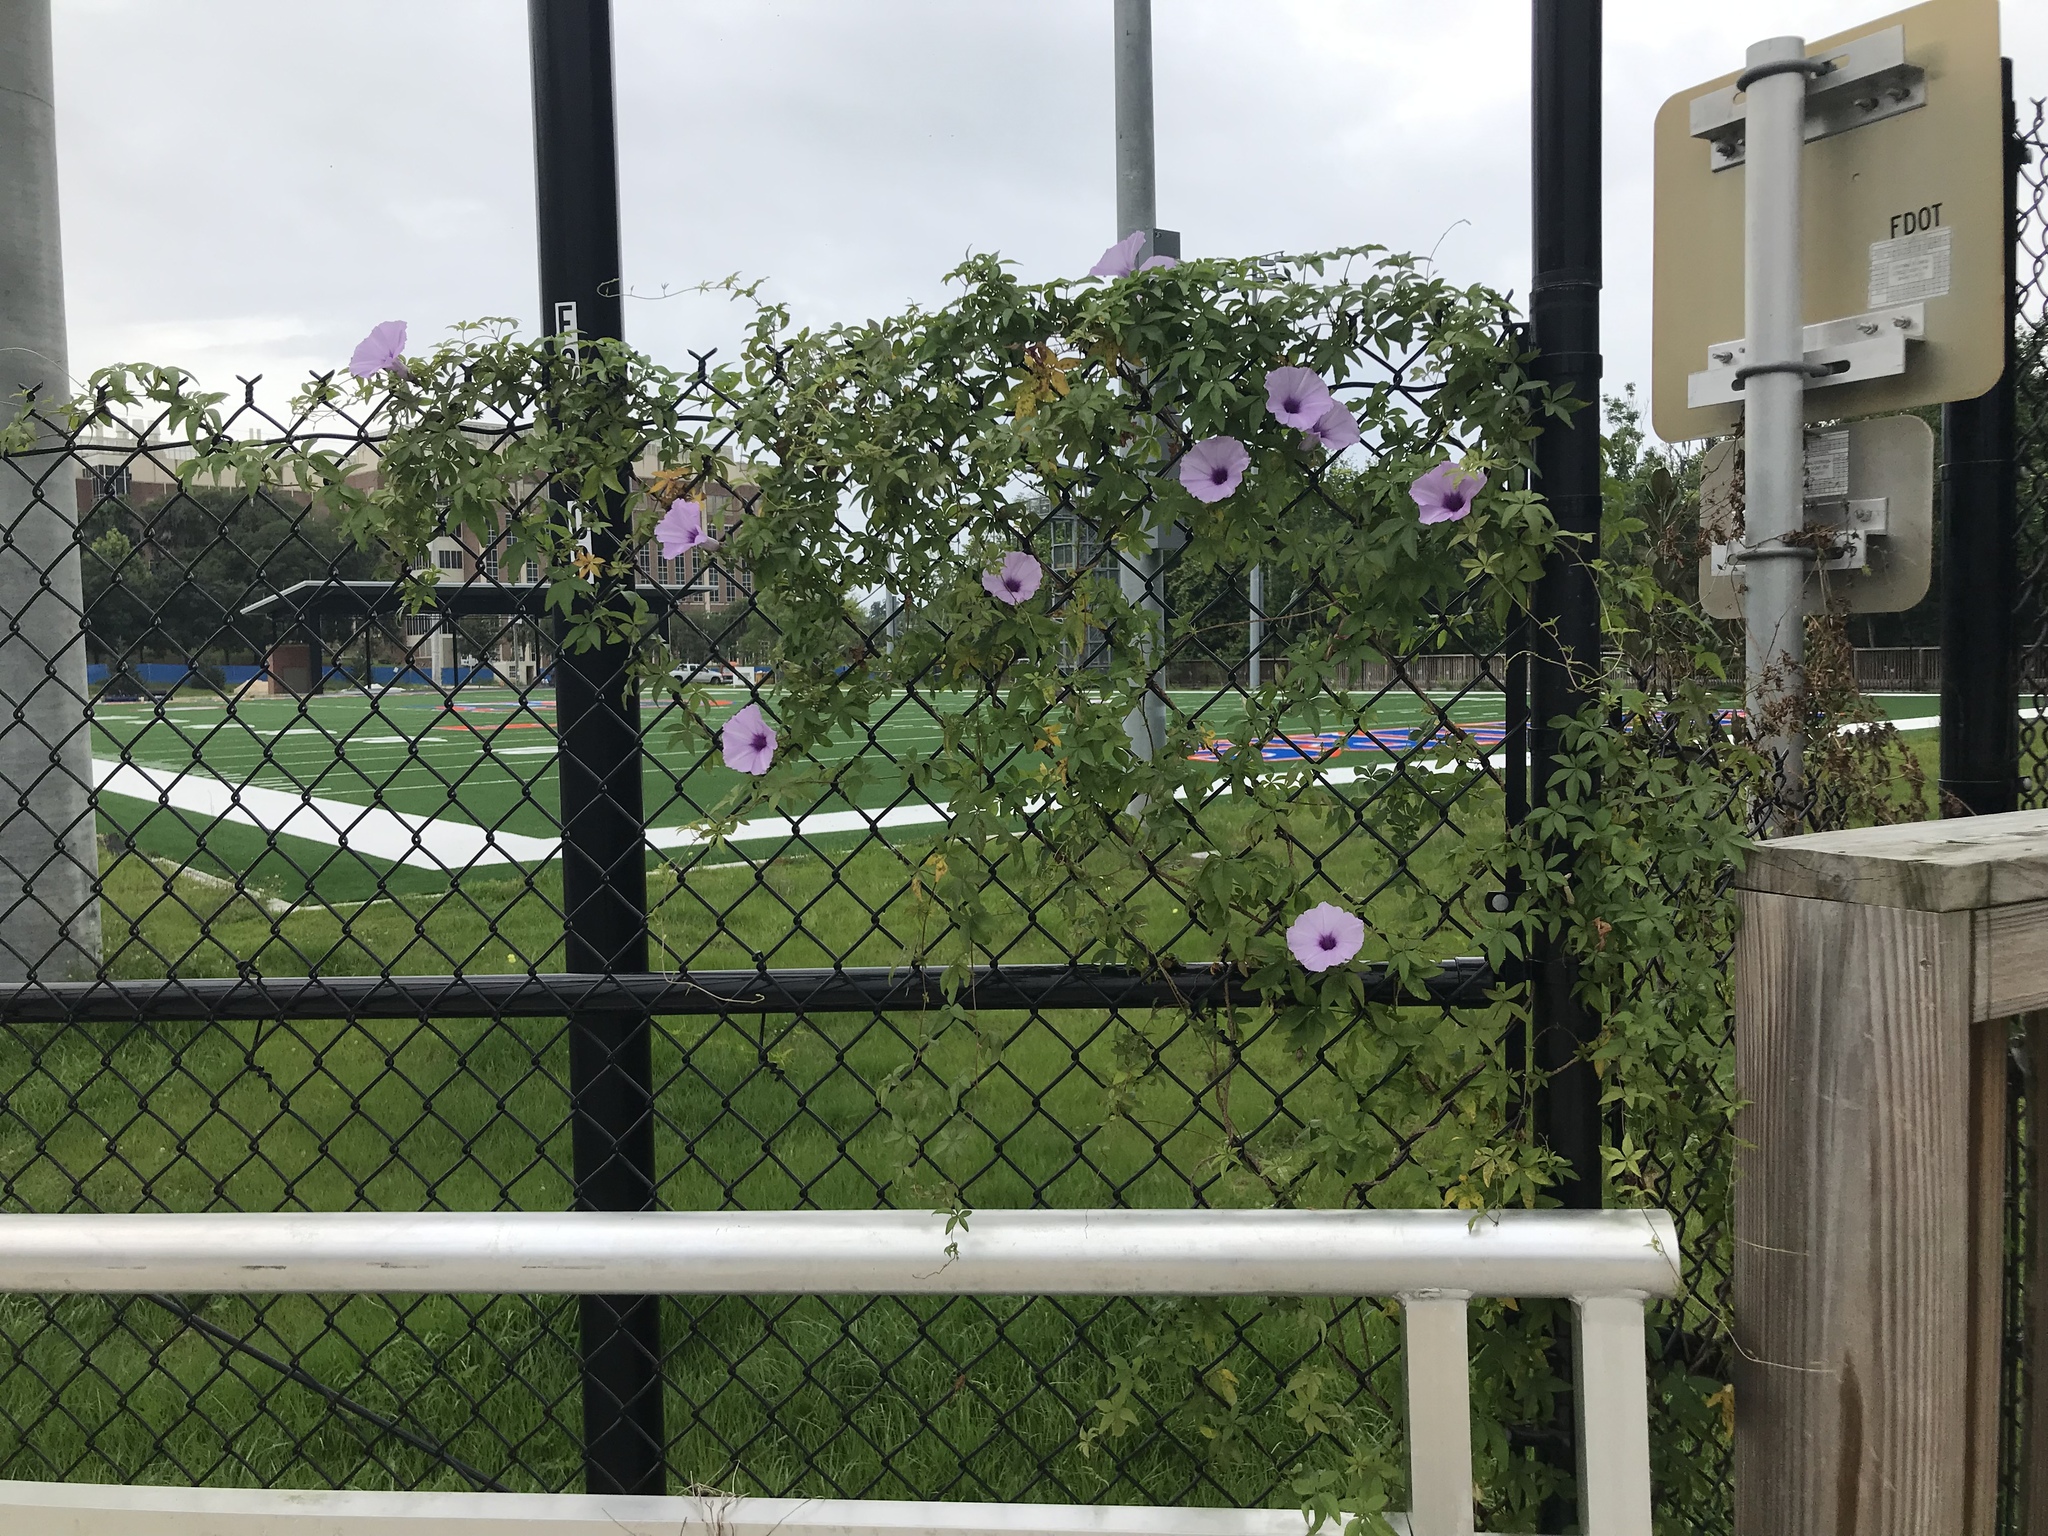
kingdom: Plantae
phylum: Tracheophyta
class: Magnoliopsida
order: Solanales
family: Convolvulaceae
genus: Ipomoea
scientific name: Ipomoea cairica
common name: Mile a minute vine
